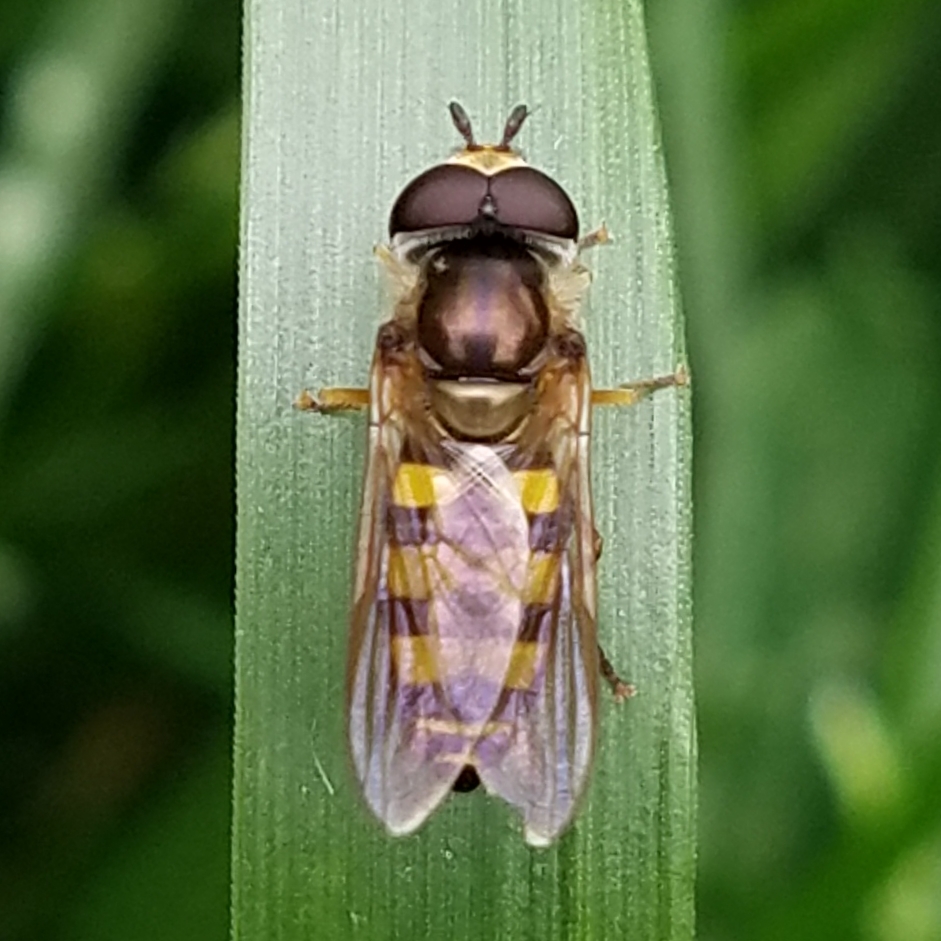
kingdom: Animalia
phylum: Arthropoda
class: Insecta
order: Diptera
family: Syrphidae
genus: Eupeodes
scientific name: Eupeodes
